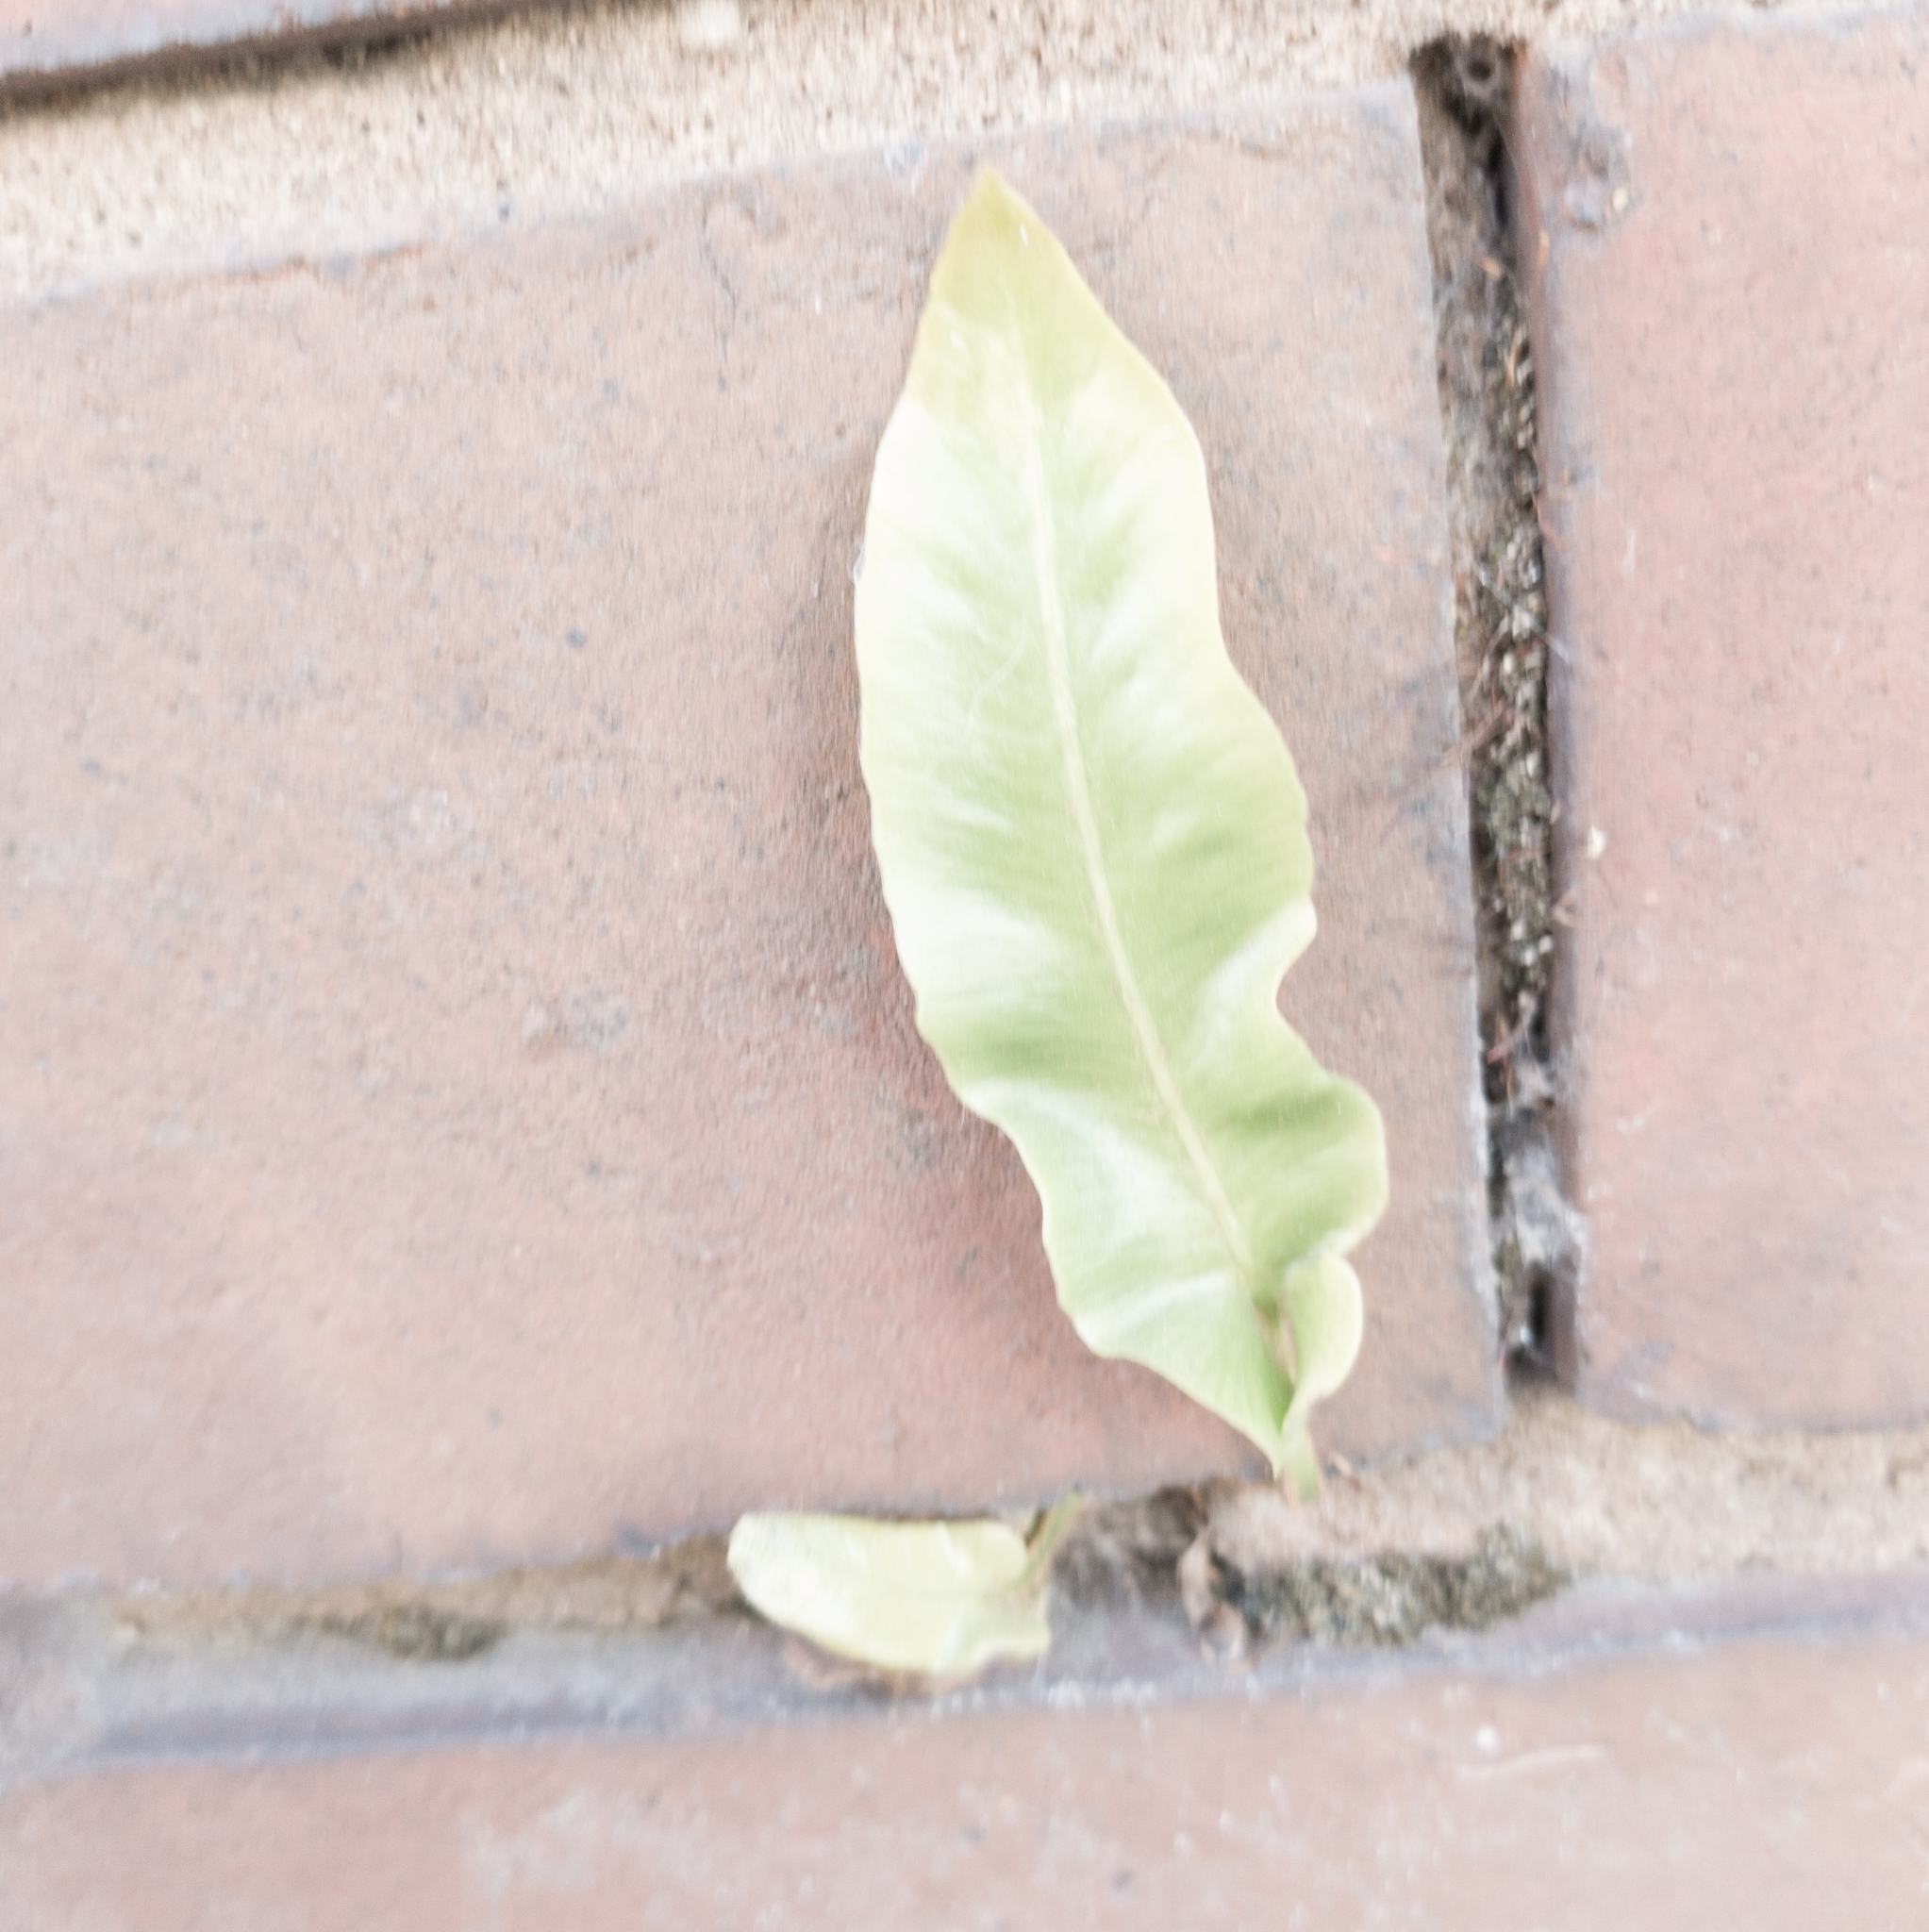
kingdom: Plantae
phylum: Tracheophyta
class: Polypodiopsida
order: Polypodiales
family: Aspleniaceae
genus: Asplenium
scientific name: Asplenium scolopendrium
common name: Hart's-tongue fern
